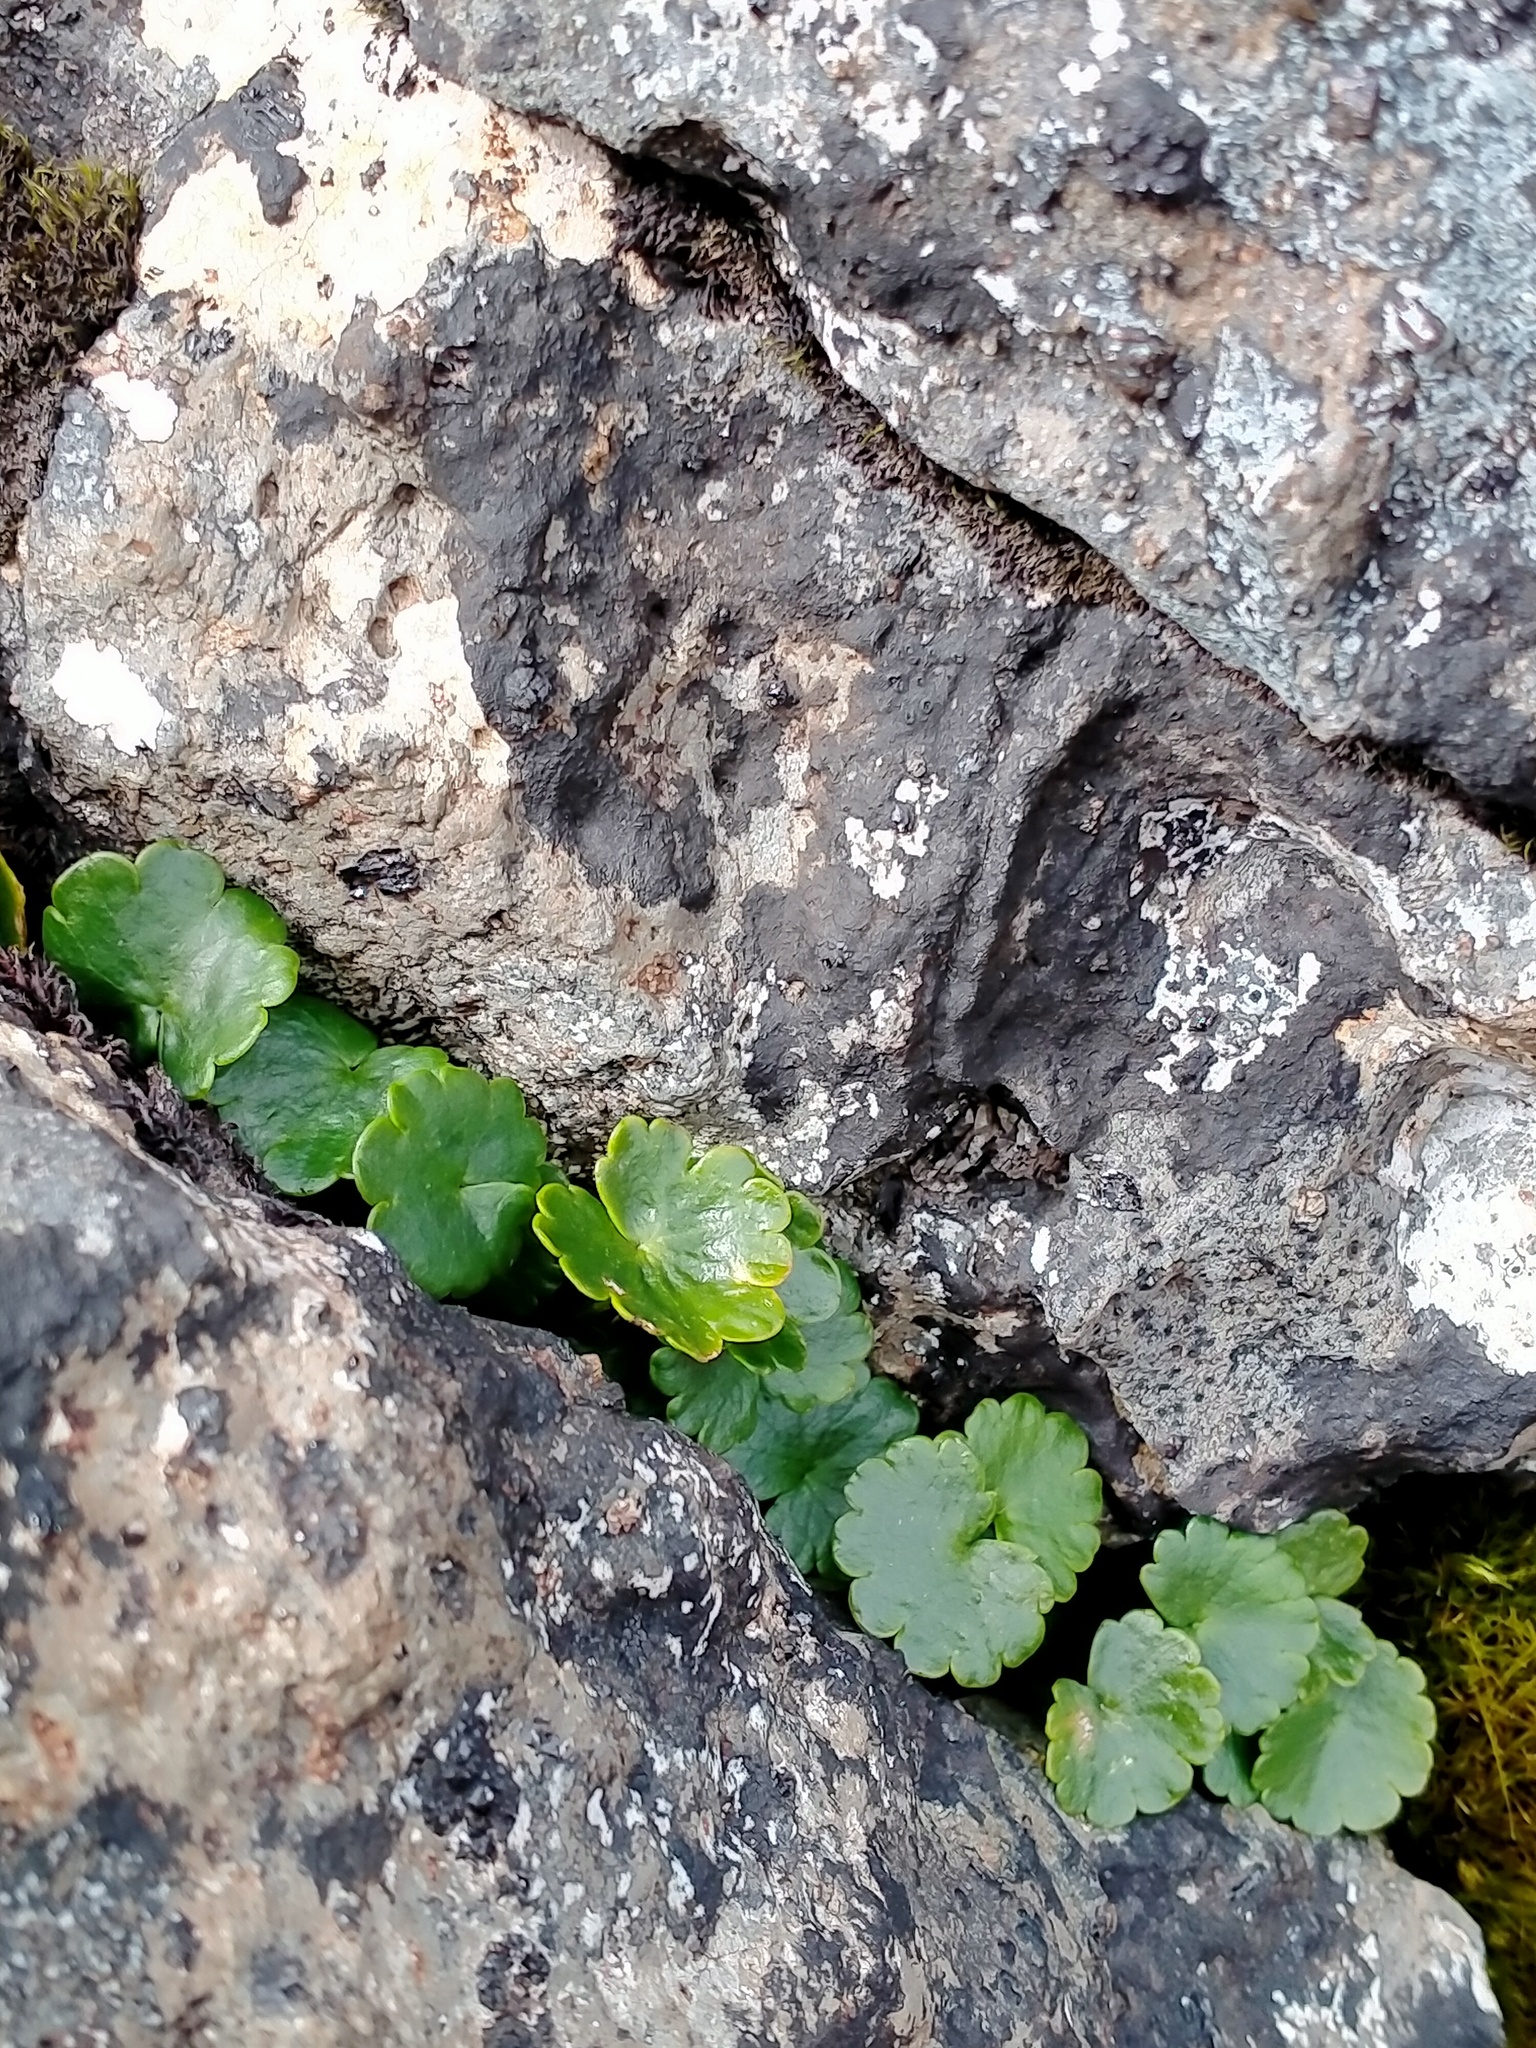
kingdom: Plantae
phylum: Tracheophyta
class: Magnoliopsida
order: Apiales
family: Apiaceae
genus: Azorella
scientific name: Azorella schizeilema
